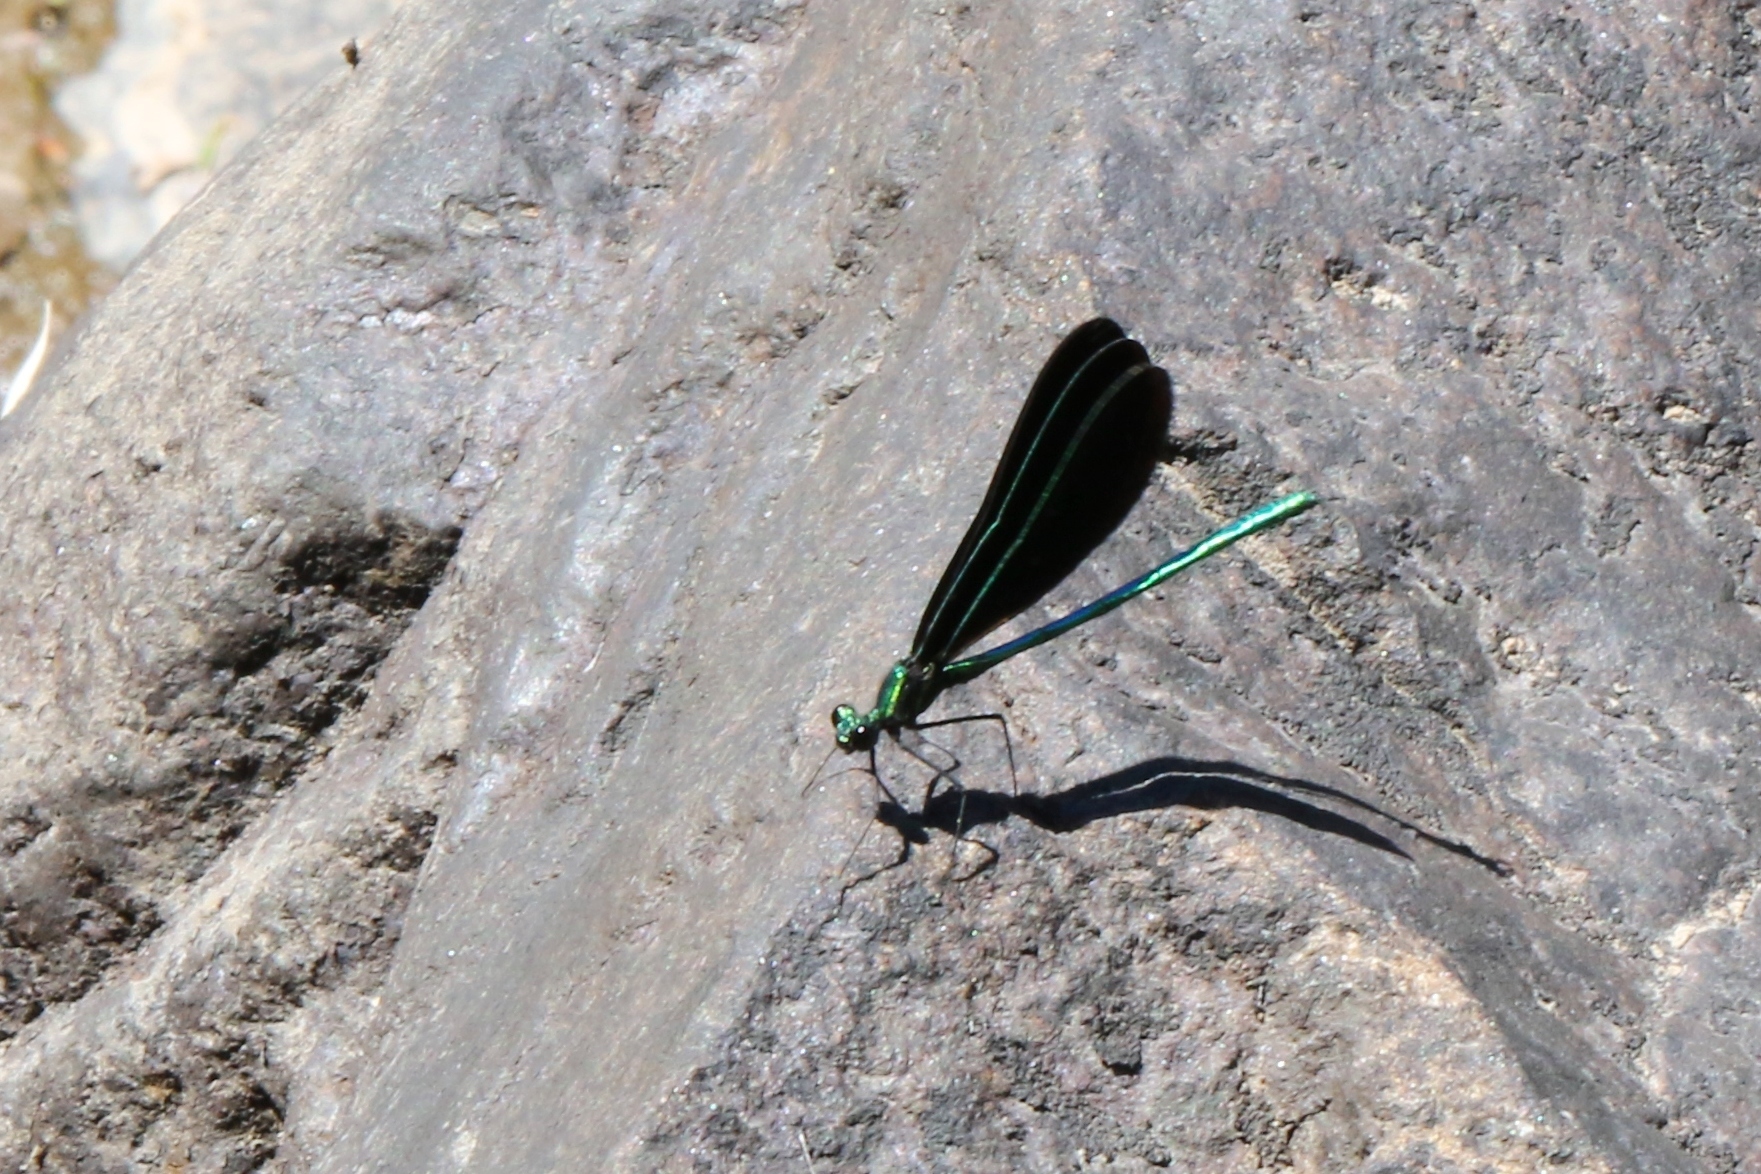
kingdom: Animalia
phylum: Arthropoda
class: Insecta
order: Odonata
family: Calopterygidae
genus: Calopteryx
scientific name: Calopteryx maculata
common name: Ebony jewelwing
